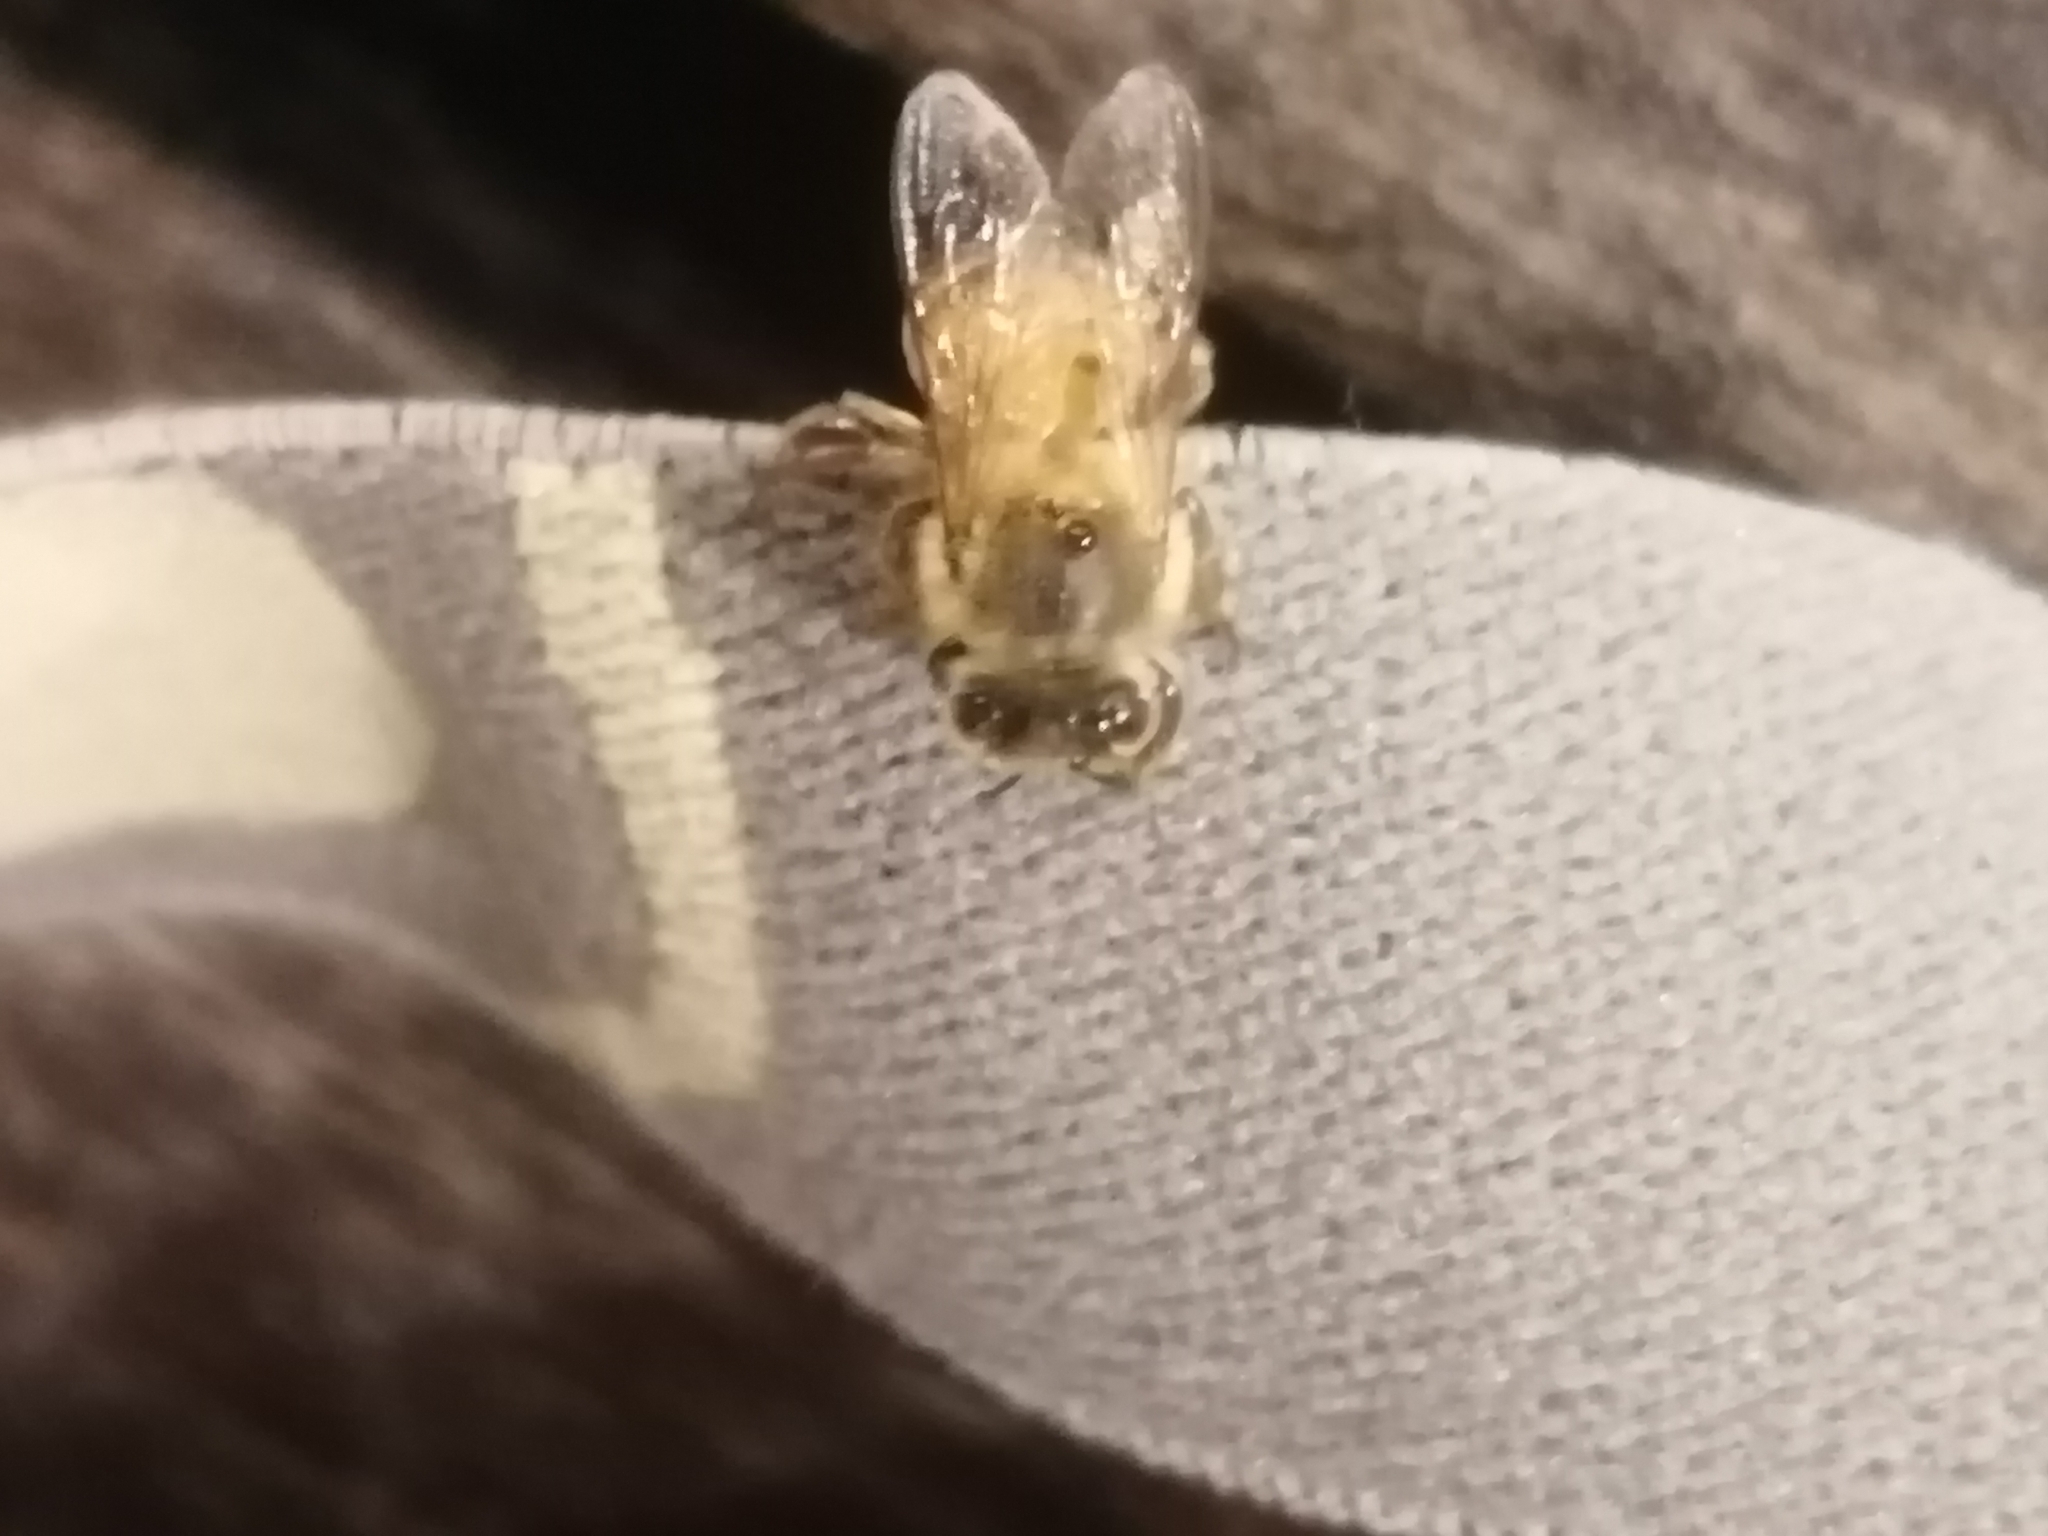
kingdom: Animalia
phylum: Arthropoda
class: Insecta
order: Hymenoptera
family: Apidae
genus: Apis
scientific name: Apis mellifera
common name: Honey bee
